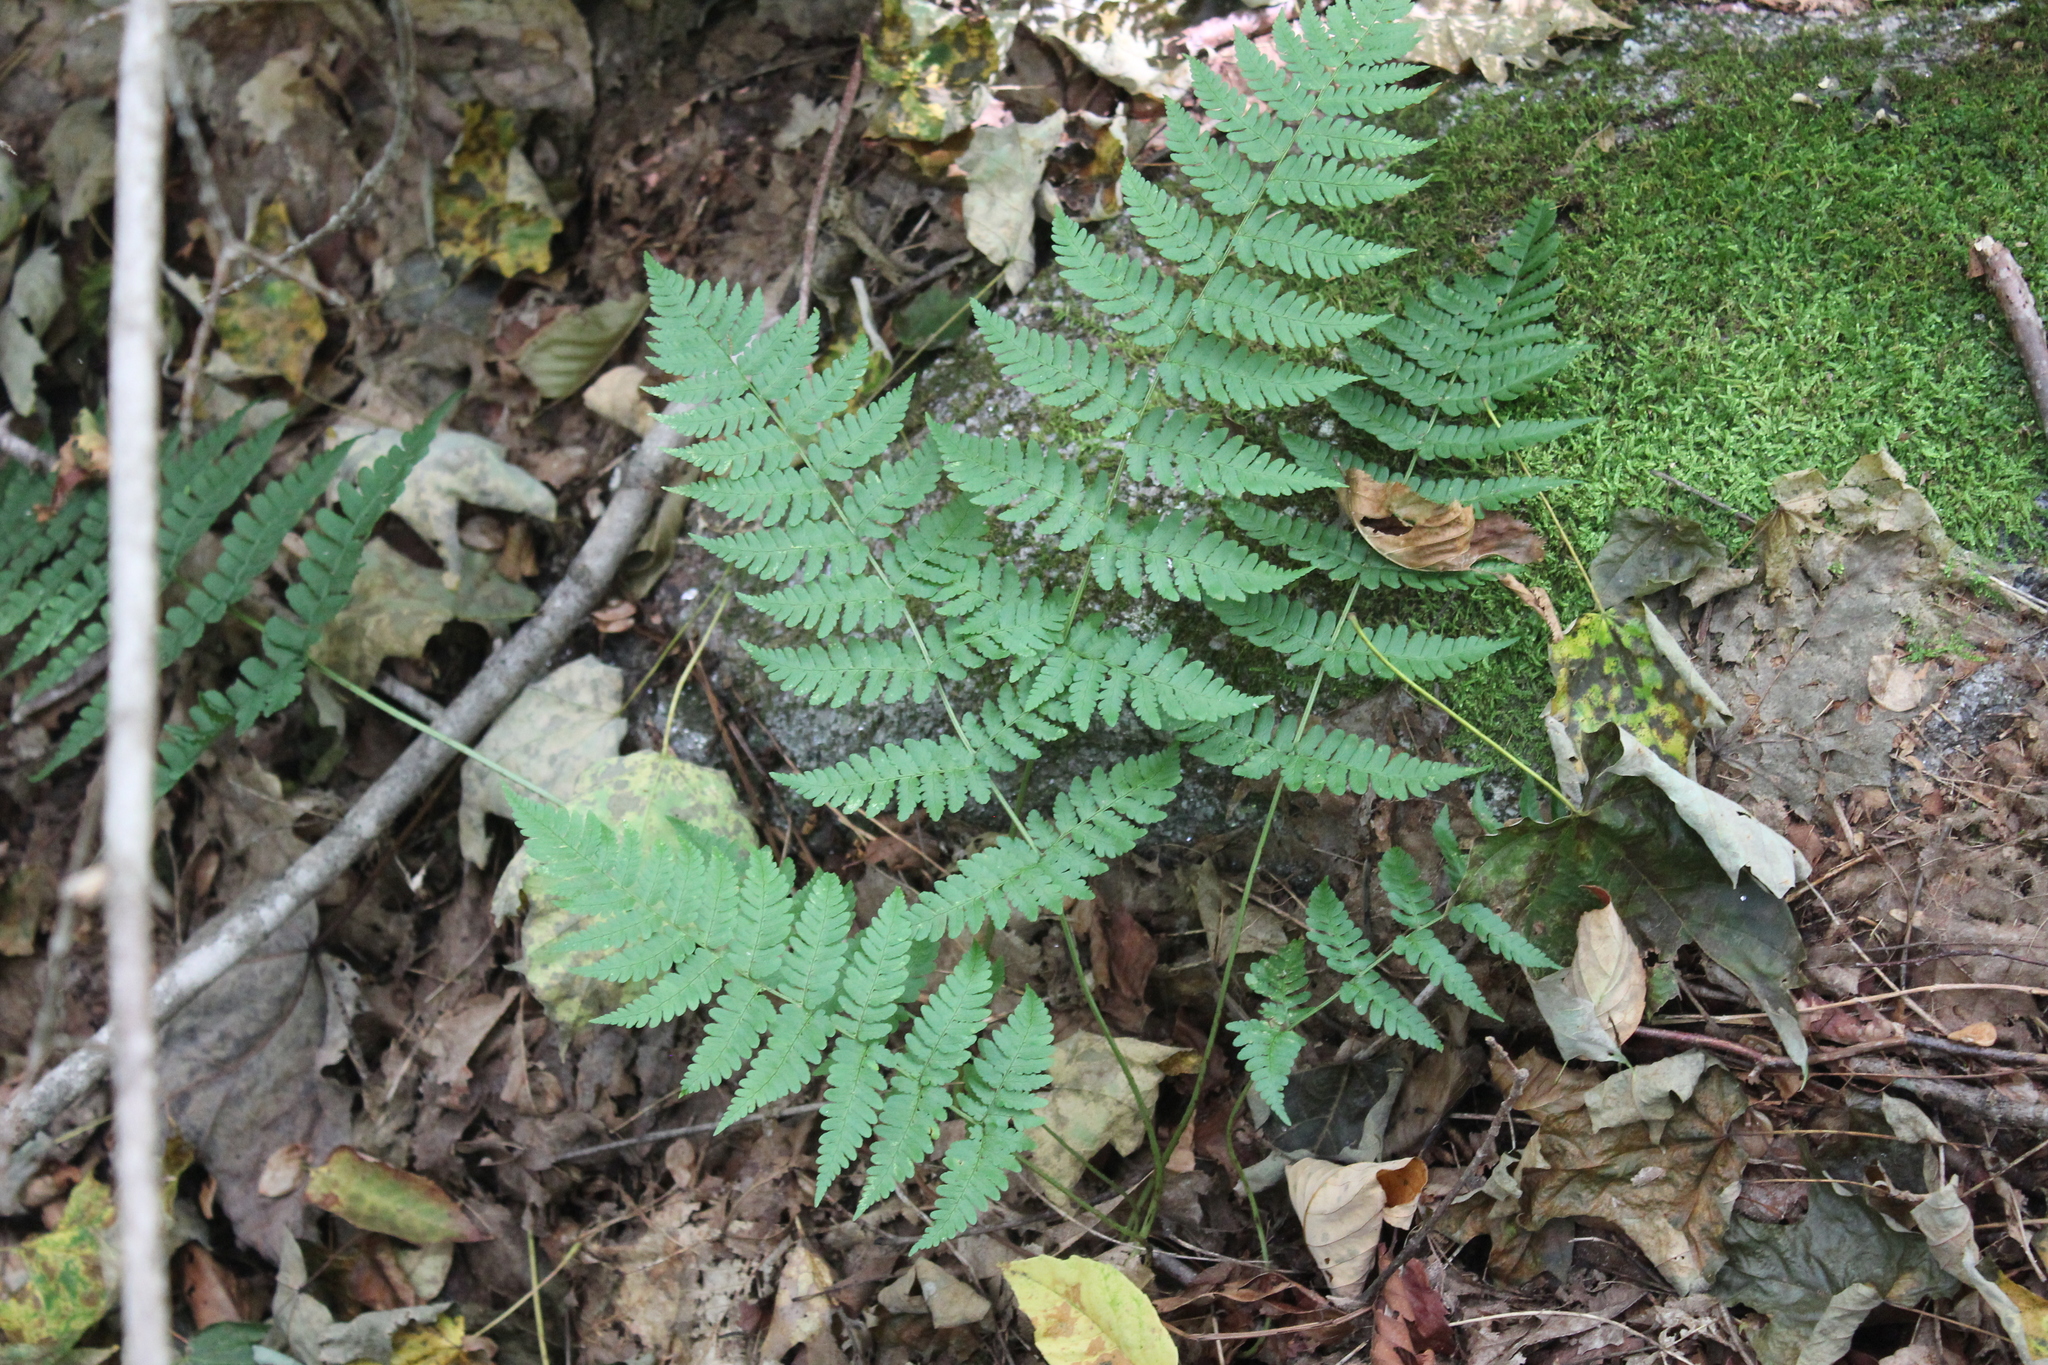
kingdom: Plantae
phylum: Tracheophyta
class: Polypodiopsida
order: Polypodiales
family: Dryopteridaceae
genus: Dryopteris
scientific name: Dryopteris marginalis
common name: Marginal wood fern
